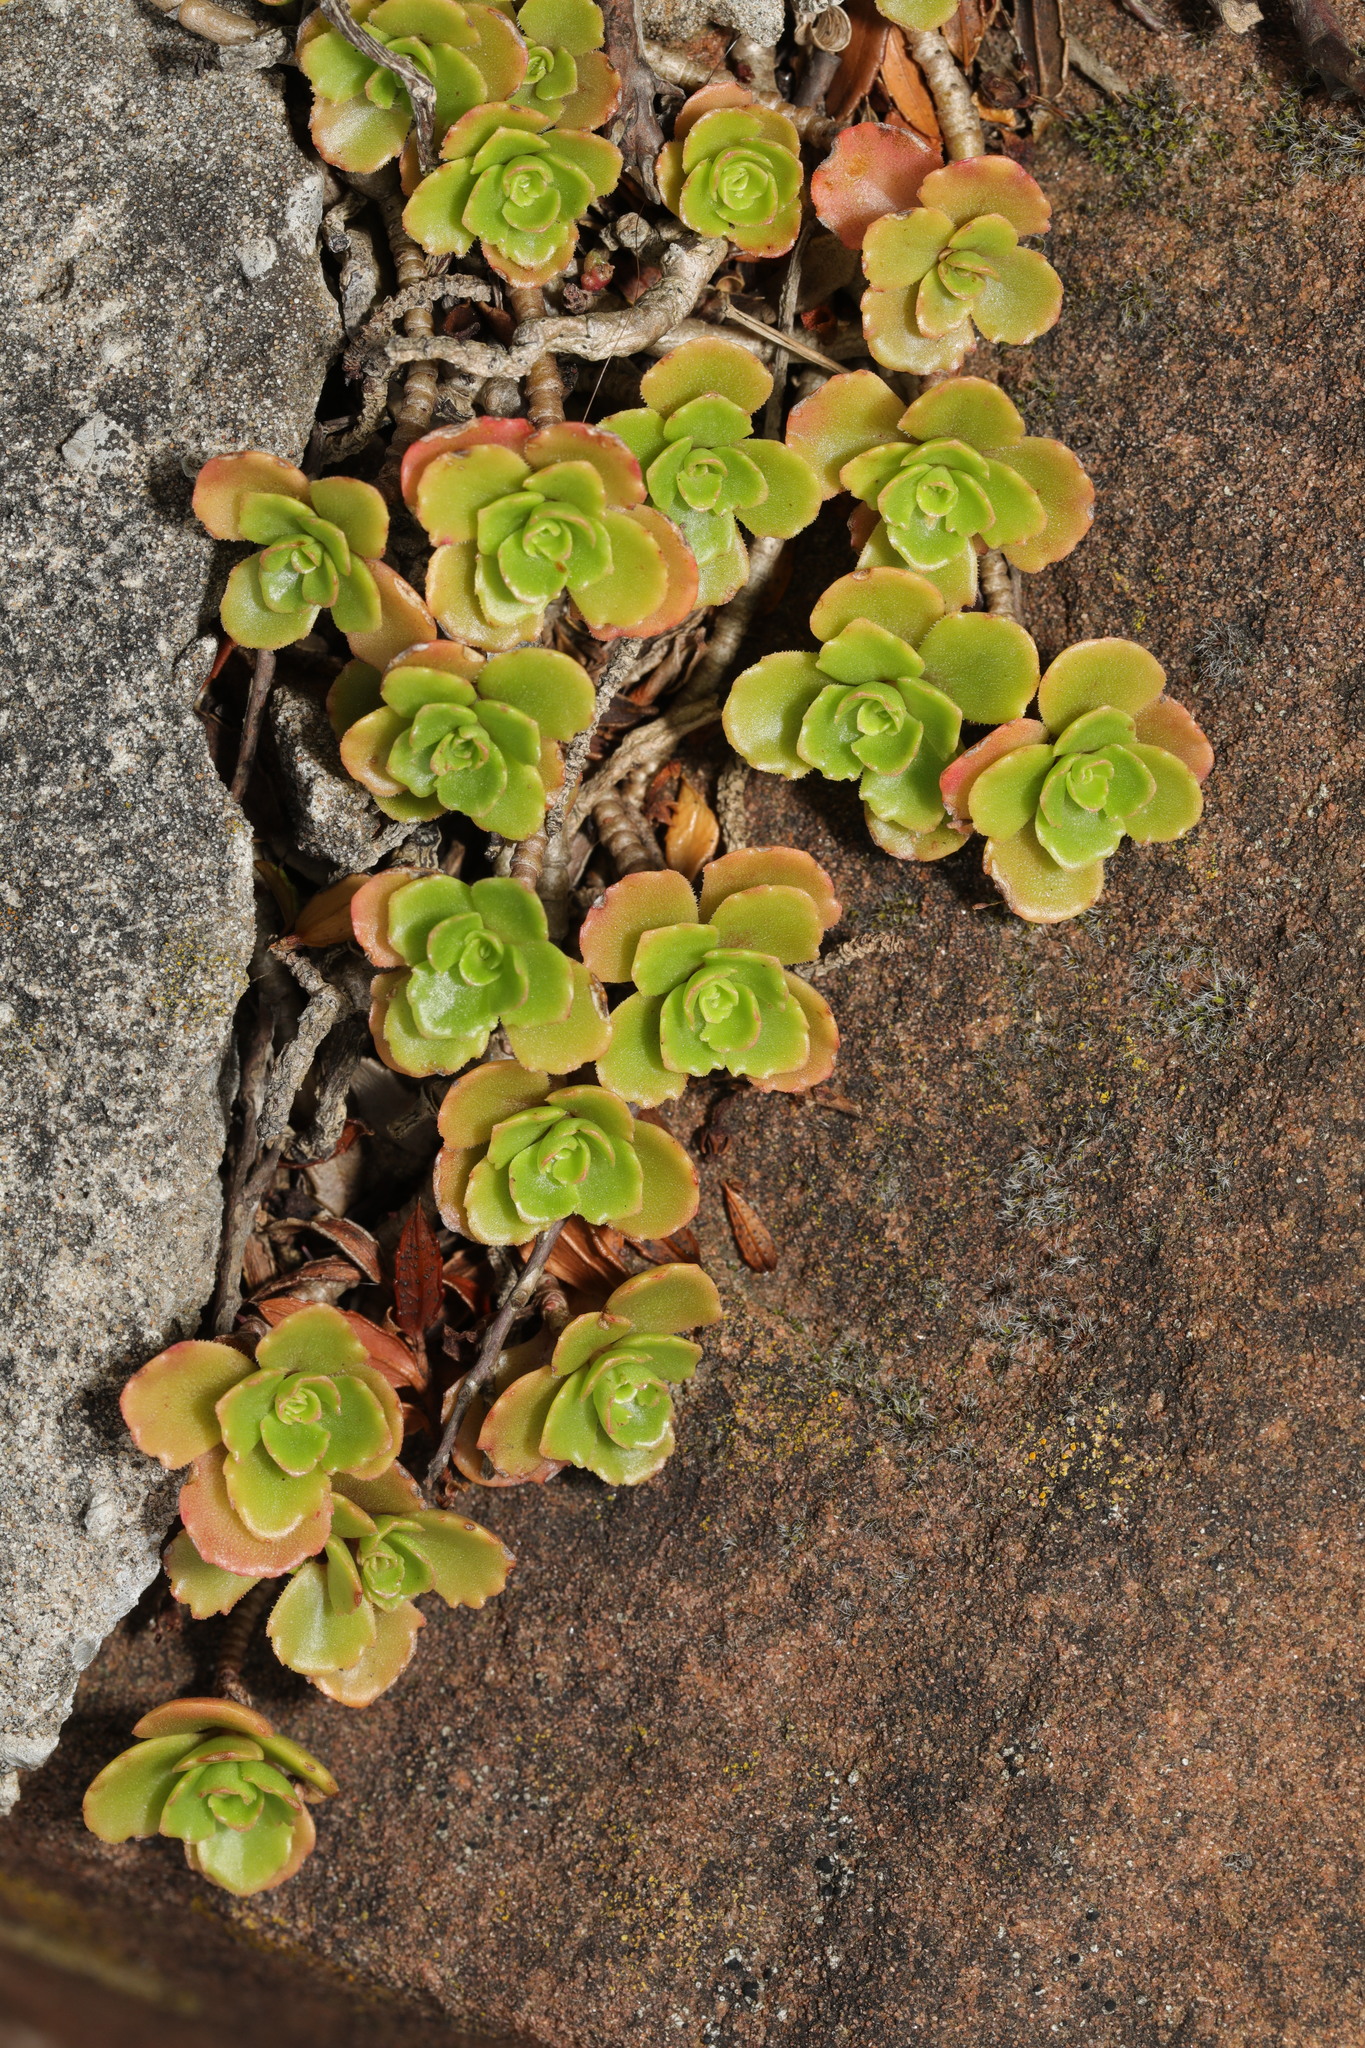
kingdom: Plantae
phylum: Tracheophyta
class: Magnoliopsida
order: Saxifragales
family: Crassulaceae
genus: Phedimus
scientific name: Phedimus spurius
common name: Caucasian stonecrop
